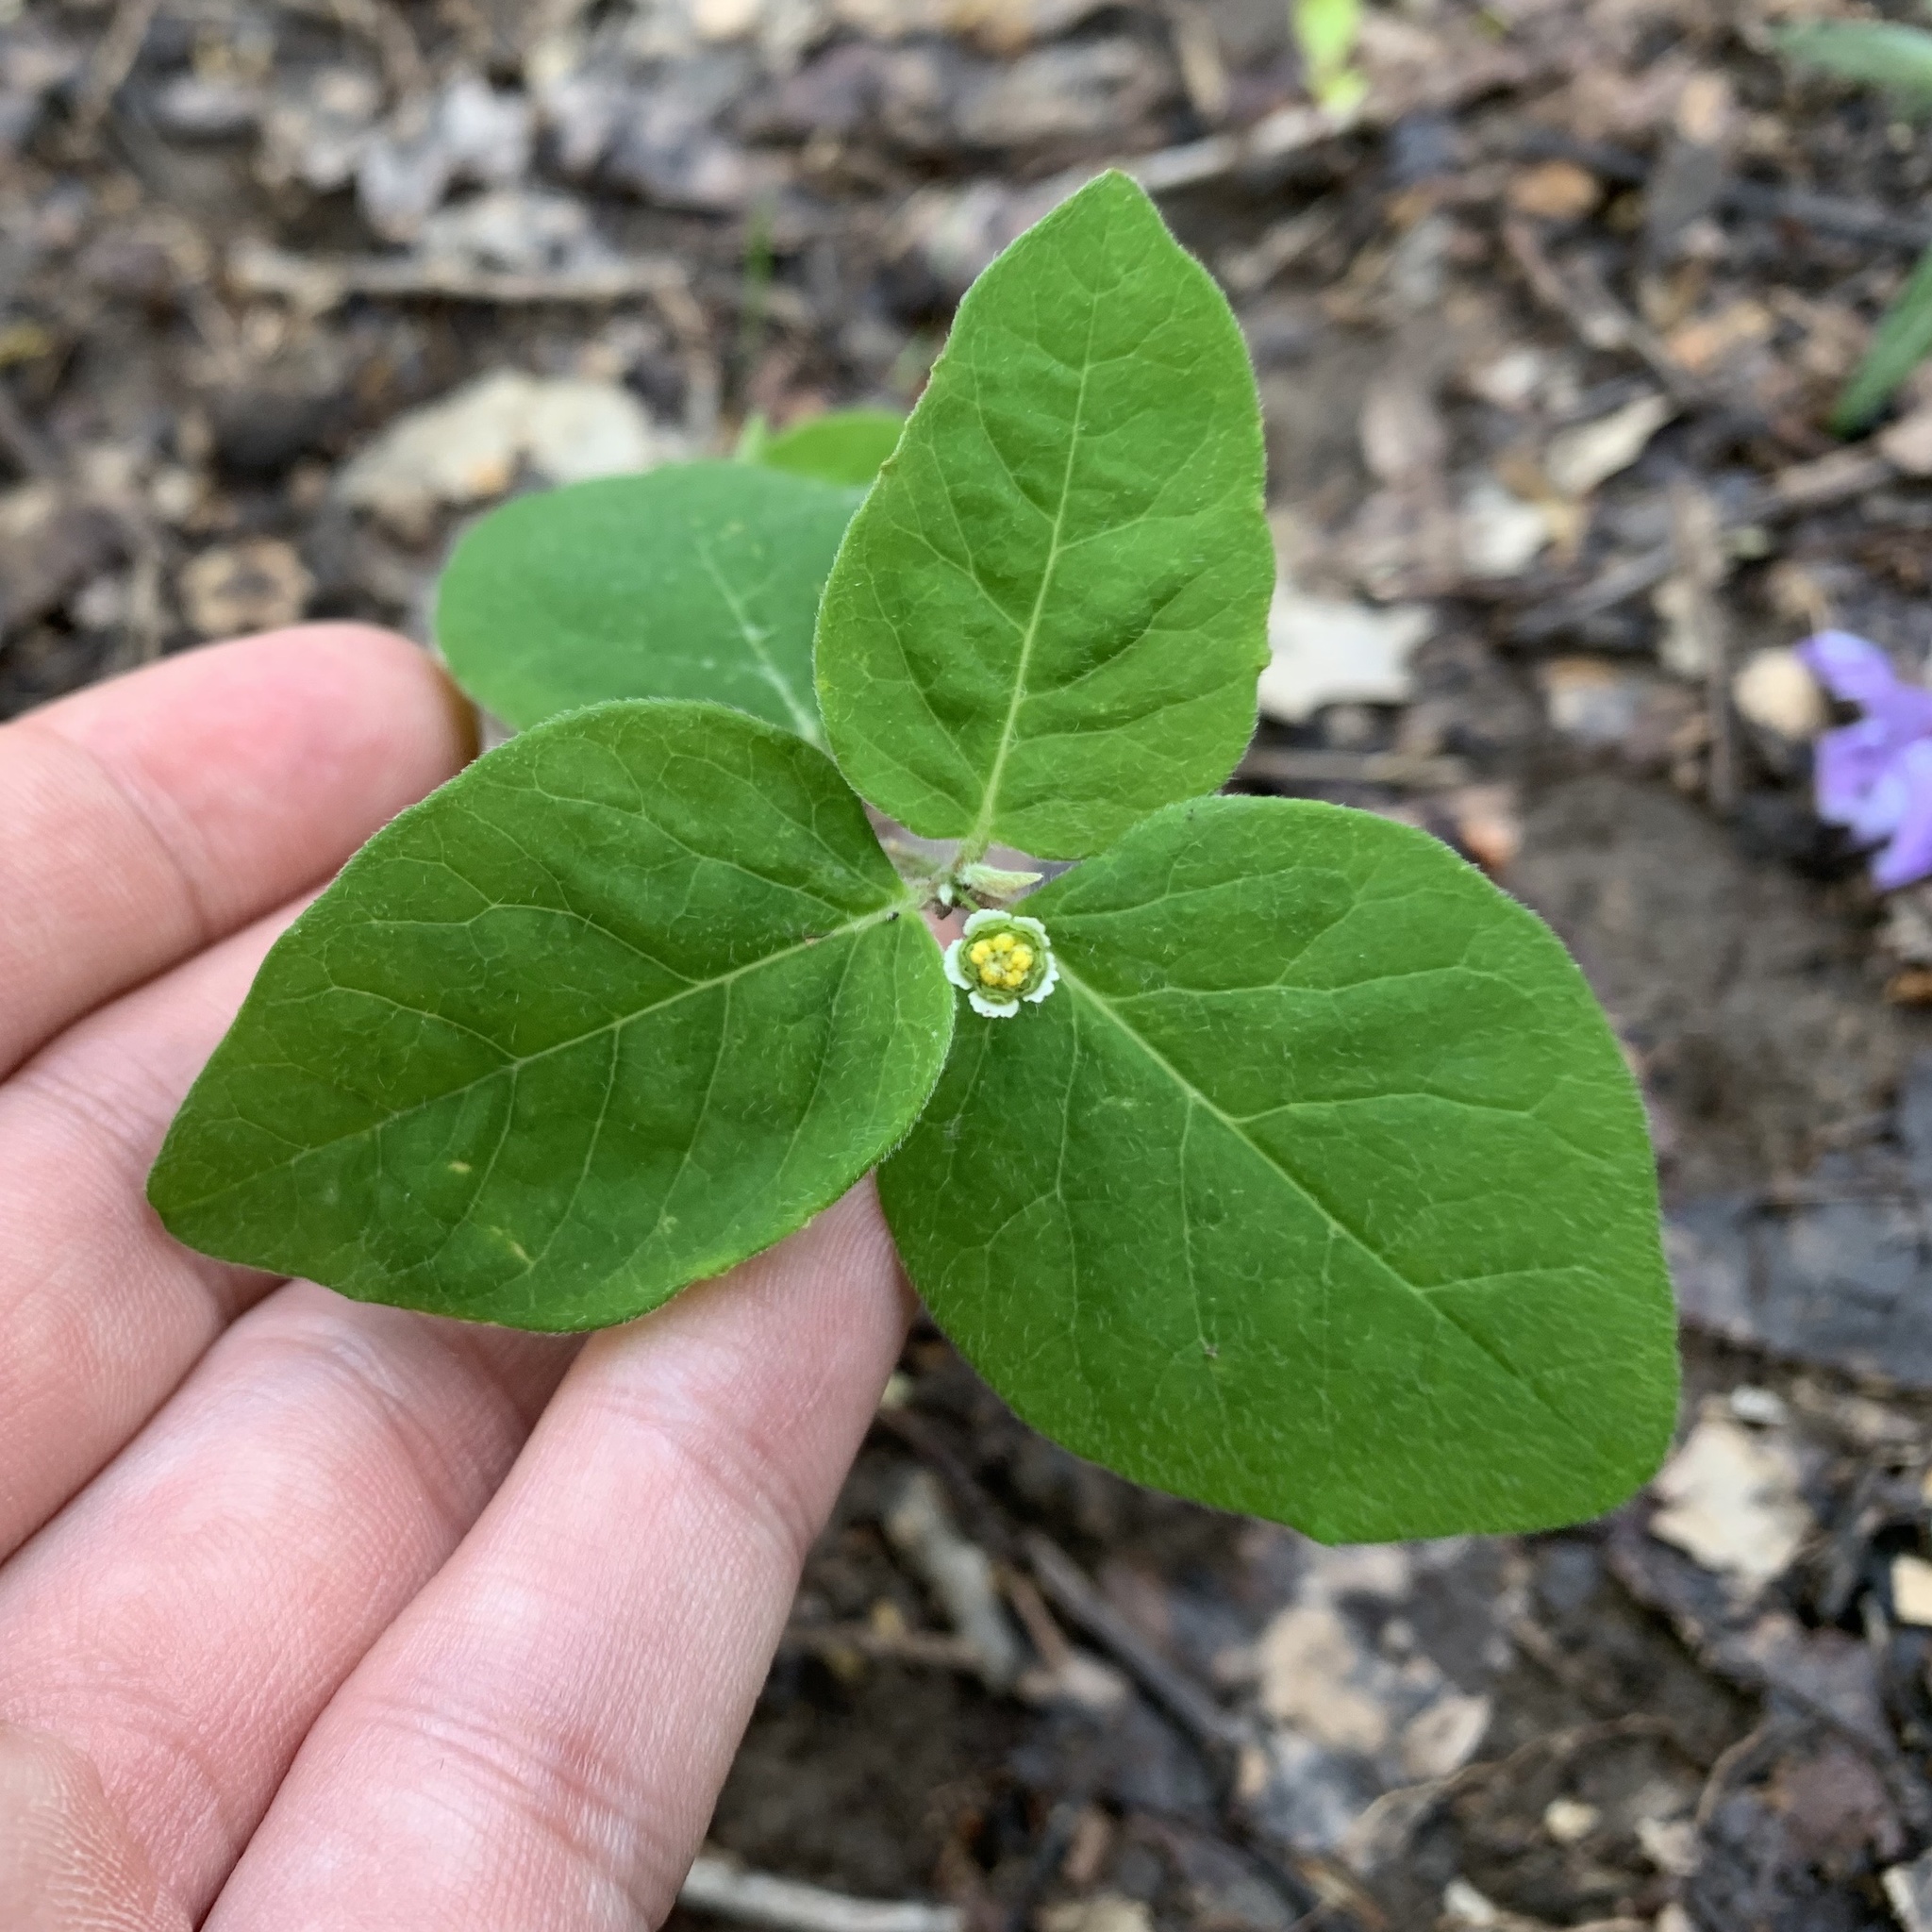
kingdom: Plantae
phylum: Tracheophyta
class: Magnoliopsida
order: Malpighiales
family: Euphorbiaceae
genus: Euphorbia
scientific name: Euphorbia mercurialina
